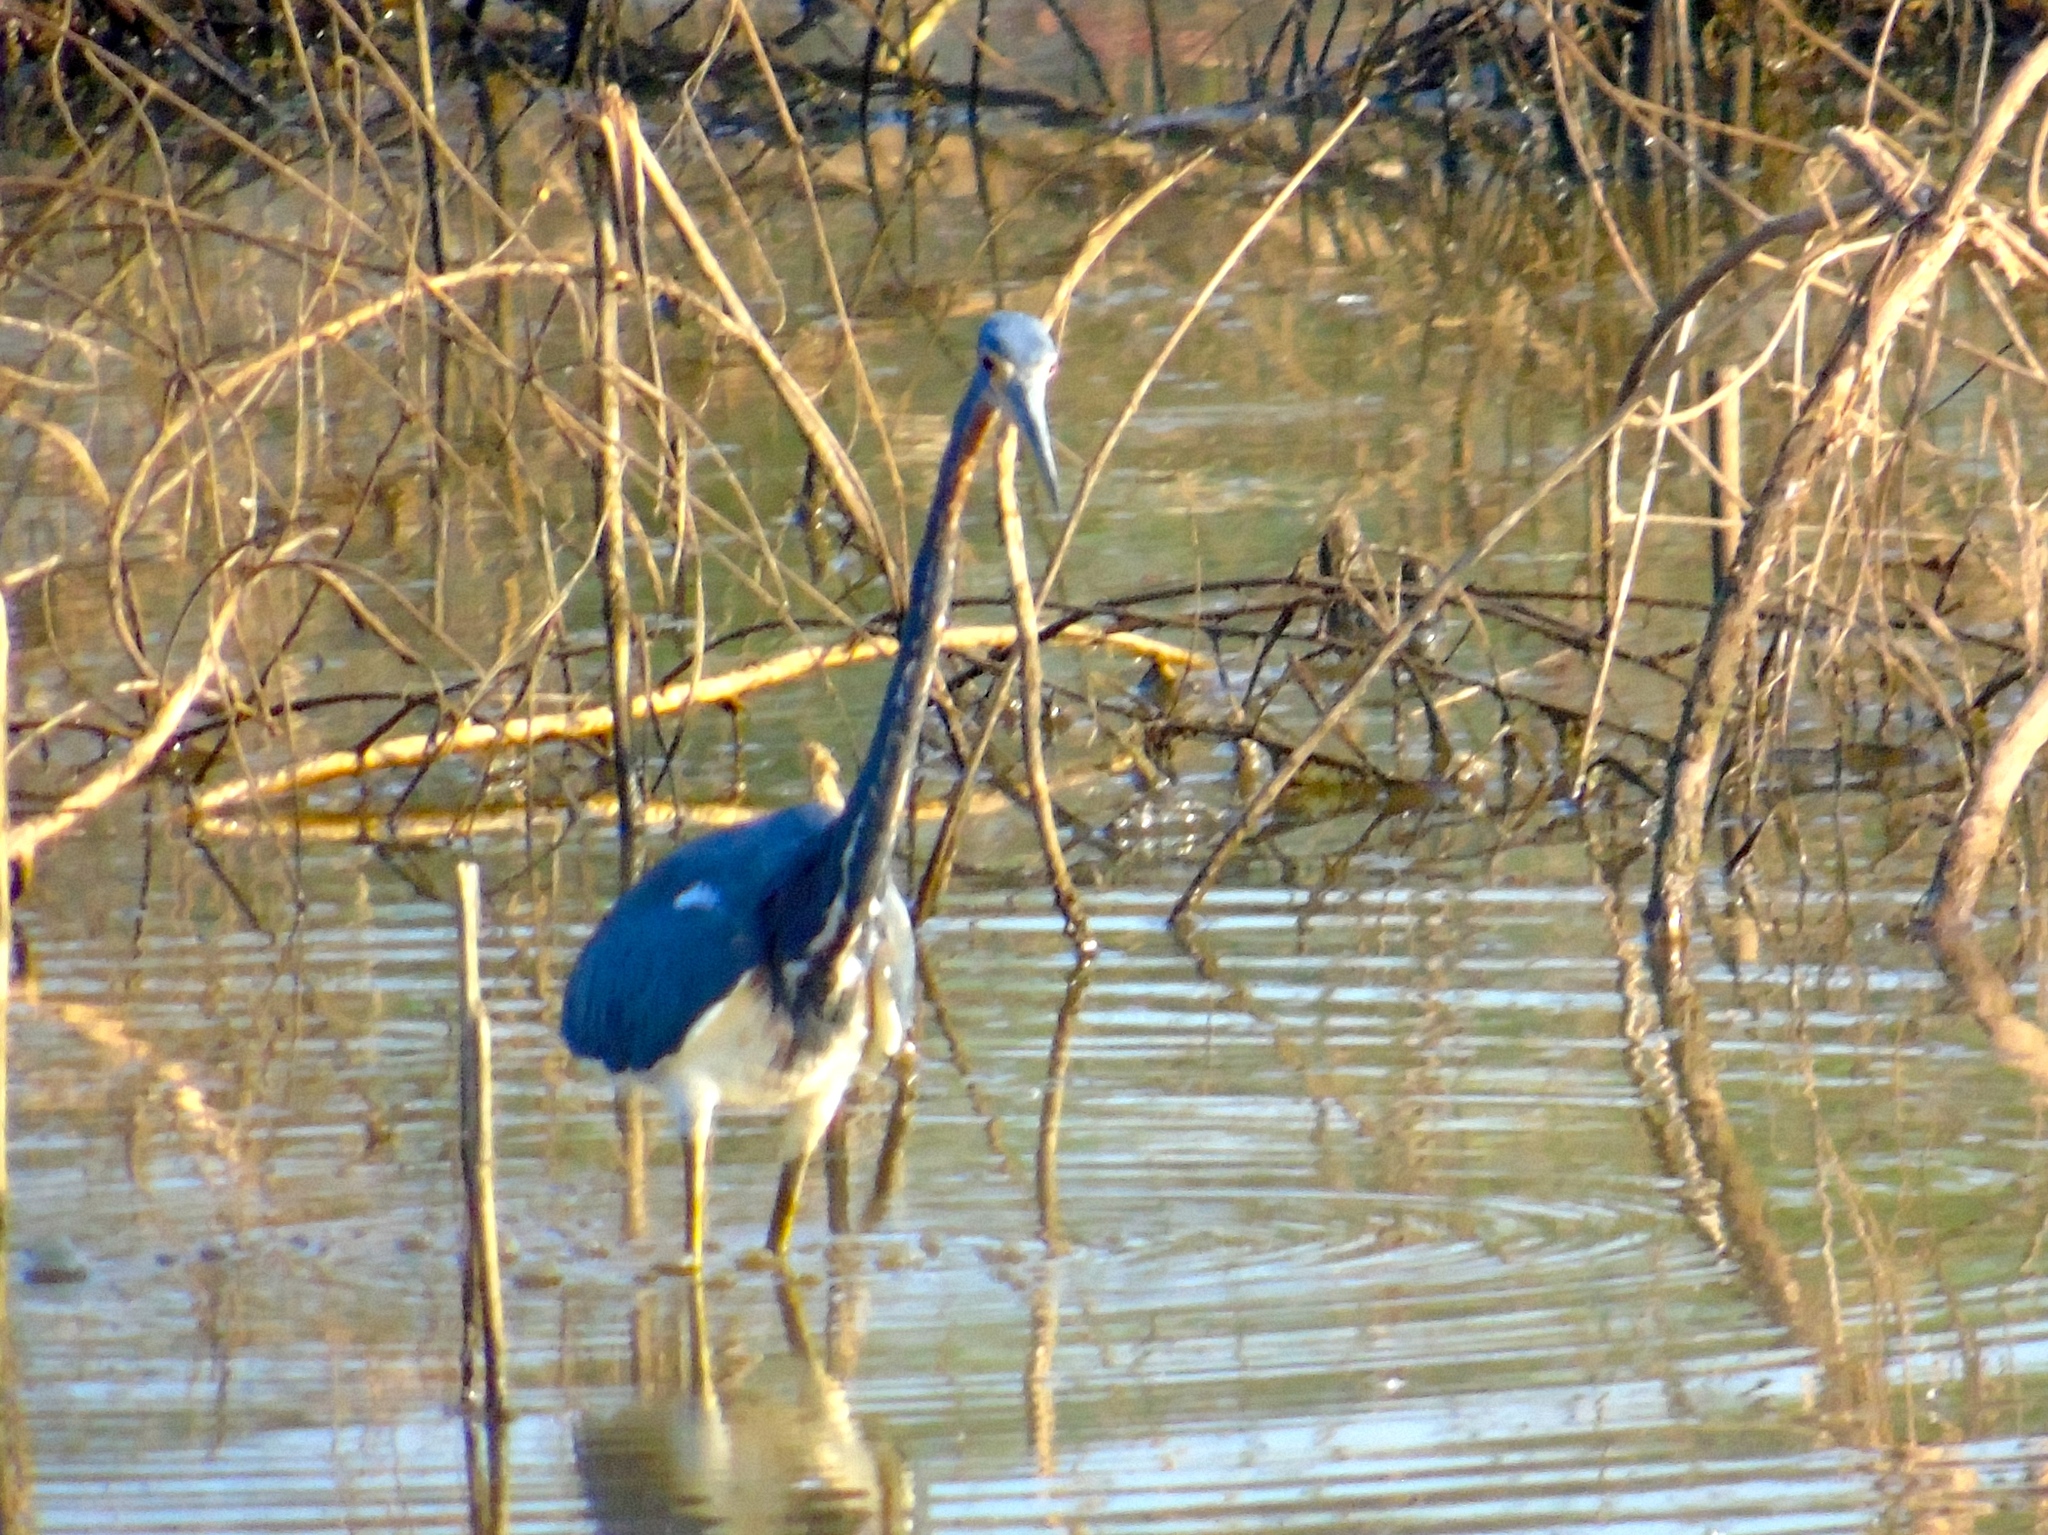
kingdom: Animalia
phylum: Chordata
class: Aves
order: Pelecaniformes
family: Ardeidae
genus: Egretta
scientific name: Egretta tricolor
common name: Tricolored heron
